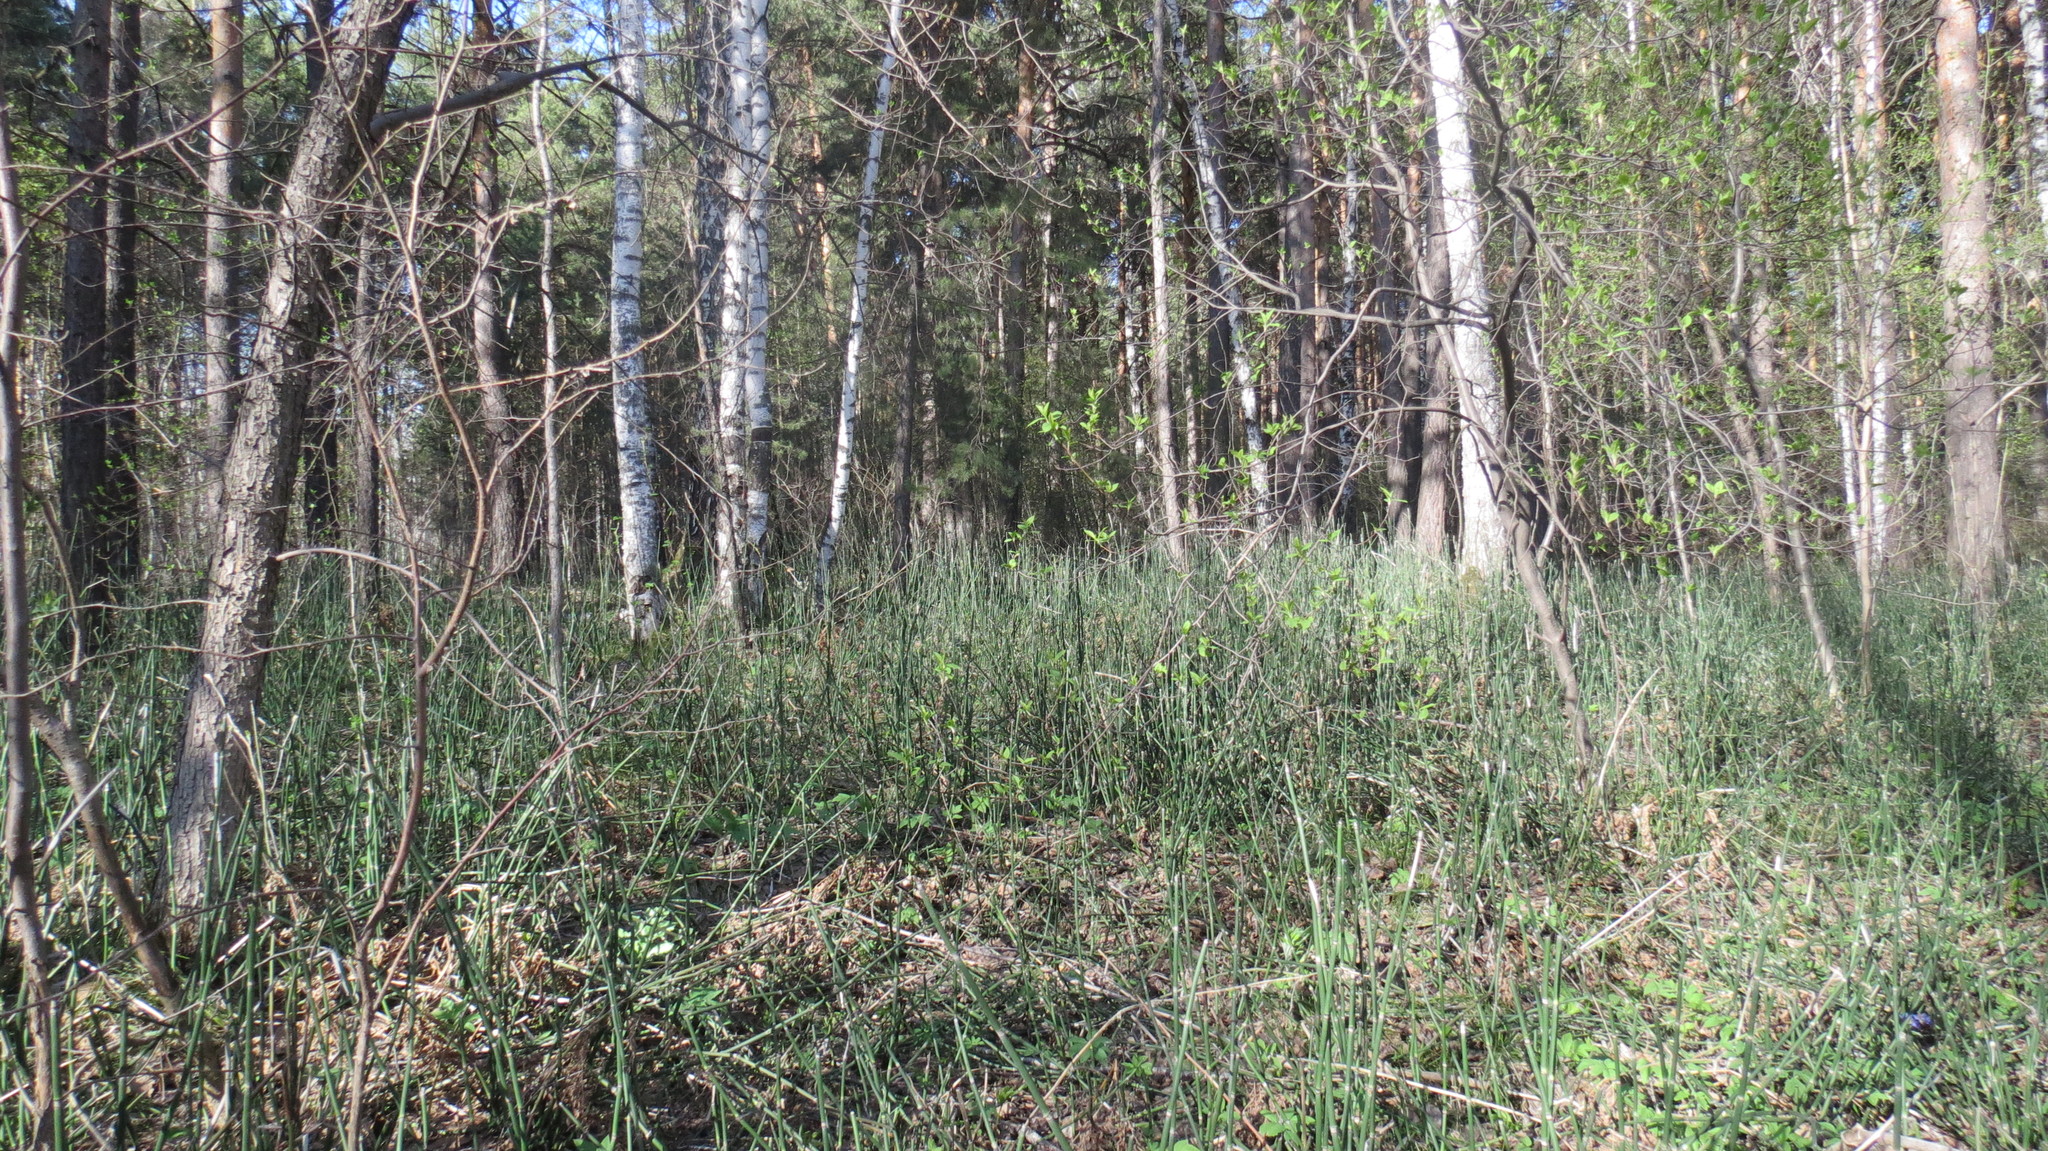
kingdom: Plantae
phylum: Tracheophyta
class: Polypodiopsida
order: Equisetales
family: Equisetaceae
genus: Equisetum
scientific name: Equisetum hyemale
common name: Rough horsetail
